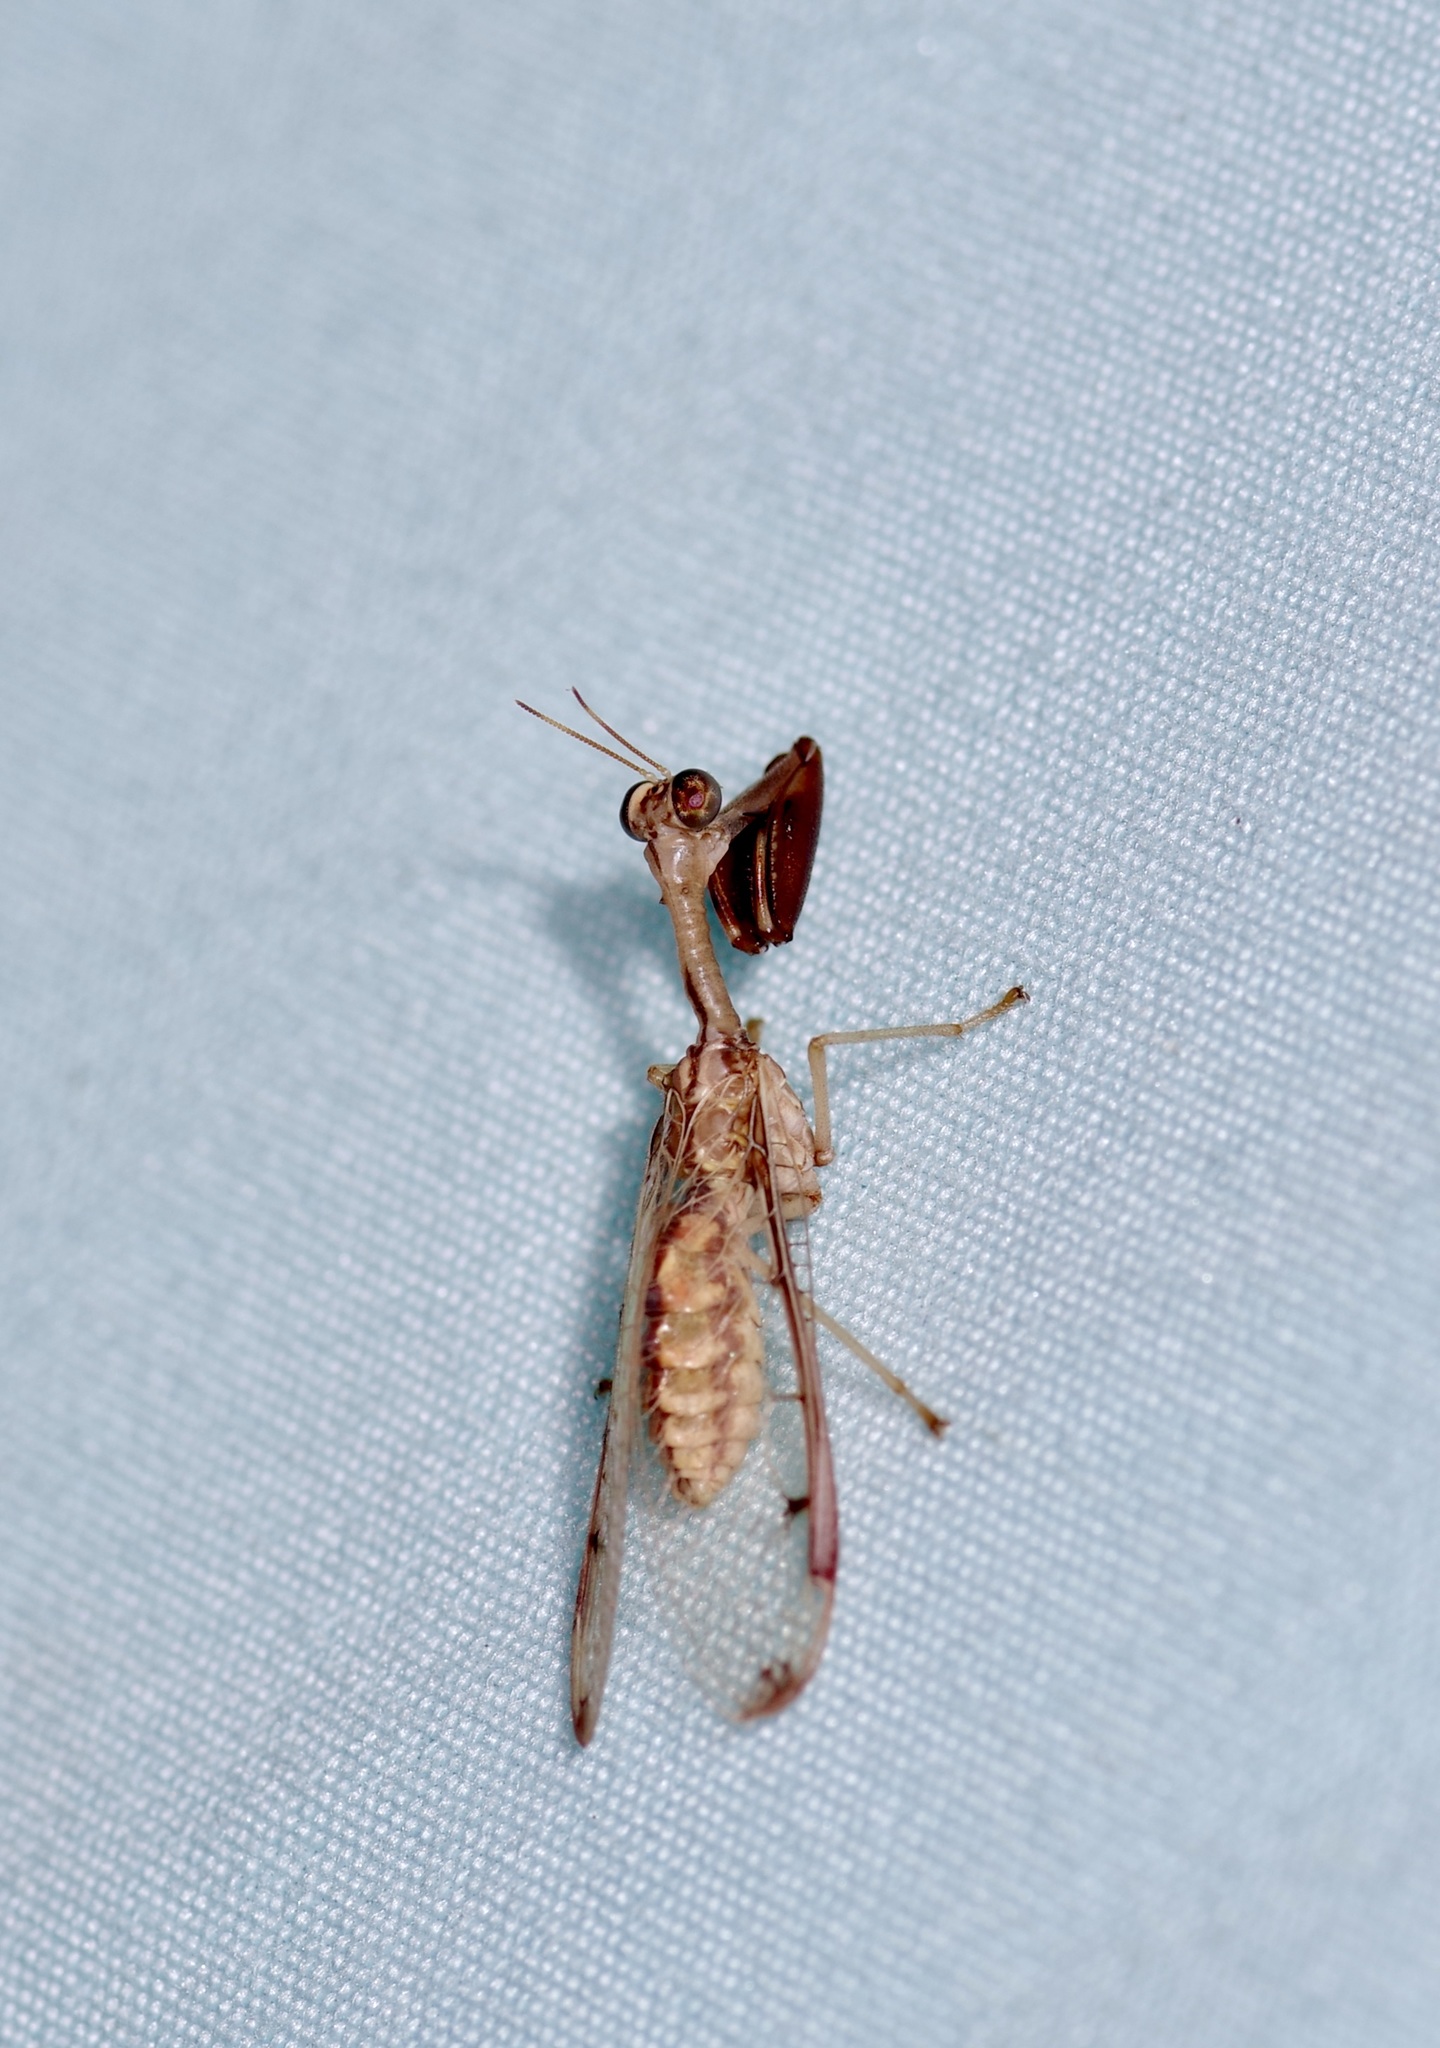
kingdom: Animalia
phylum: Arthropoda
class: Insecta
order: Neuroptera
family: Mantispidae
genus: Dicromantispa
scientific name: Dicromantispa interrupta
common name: Four-spotted mantidfly
